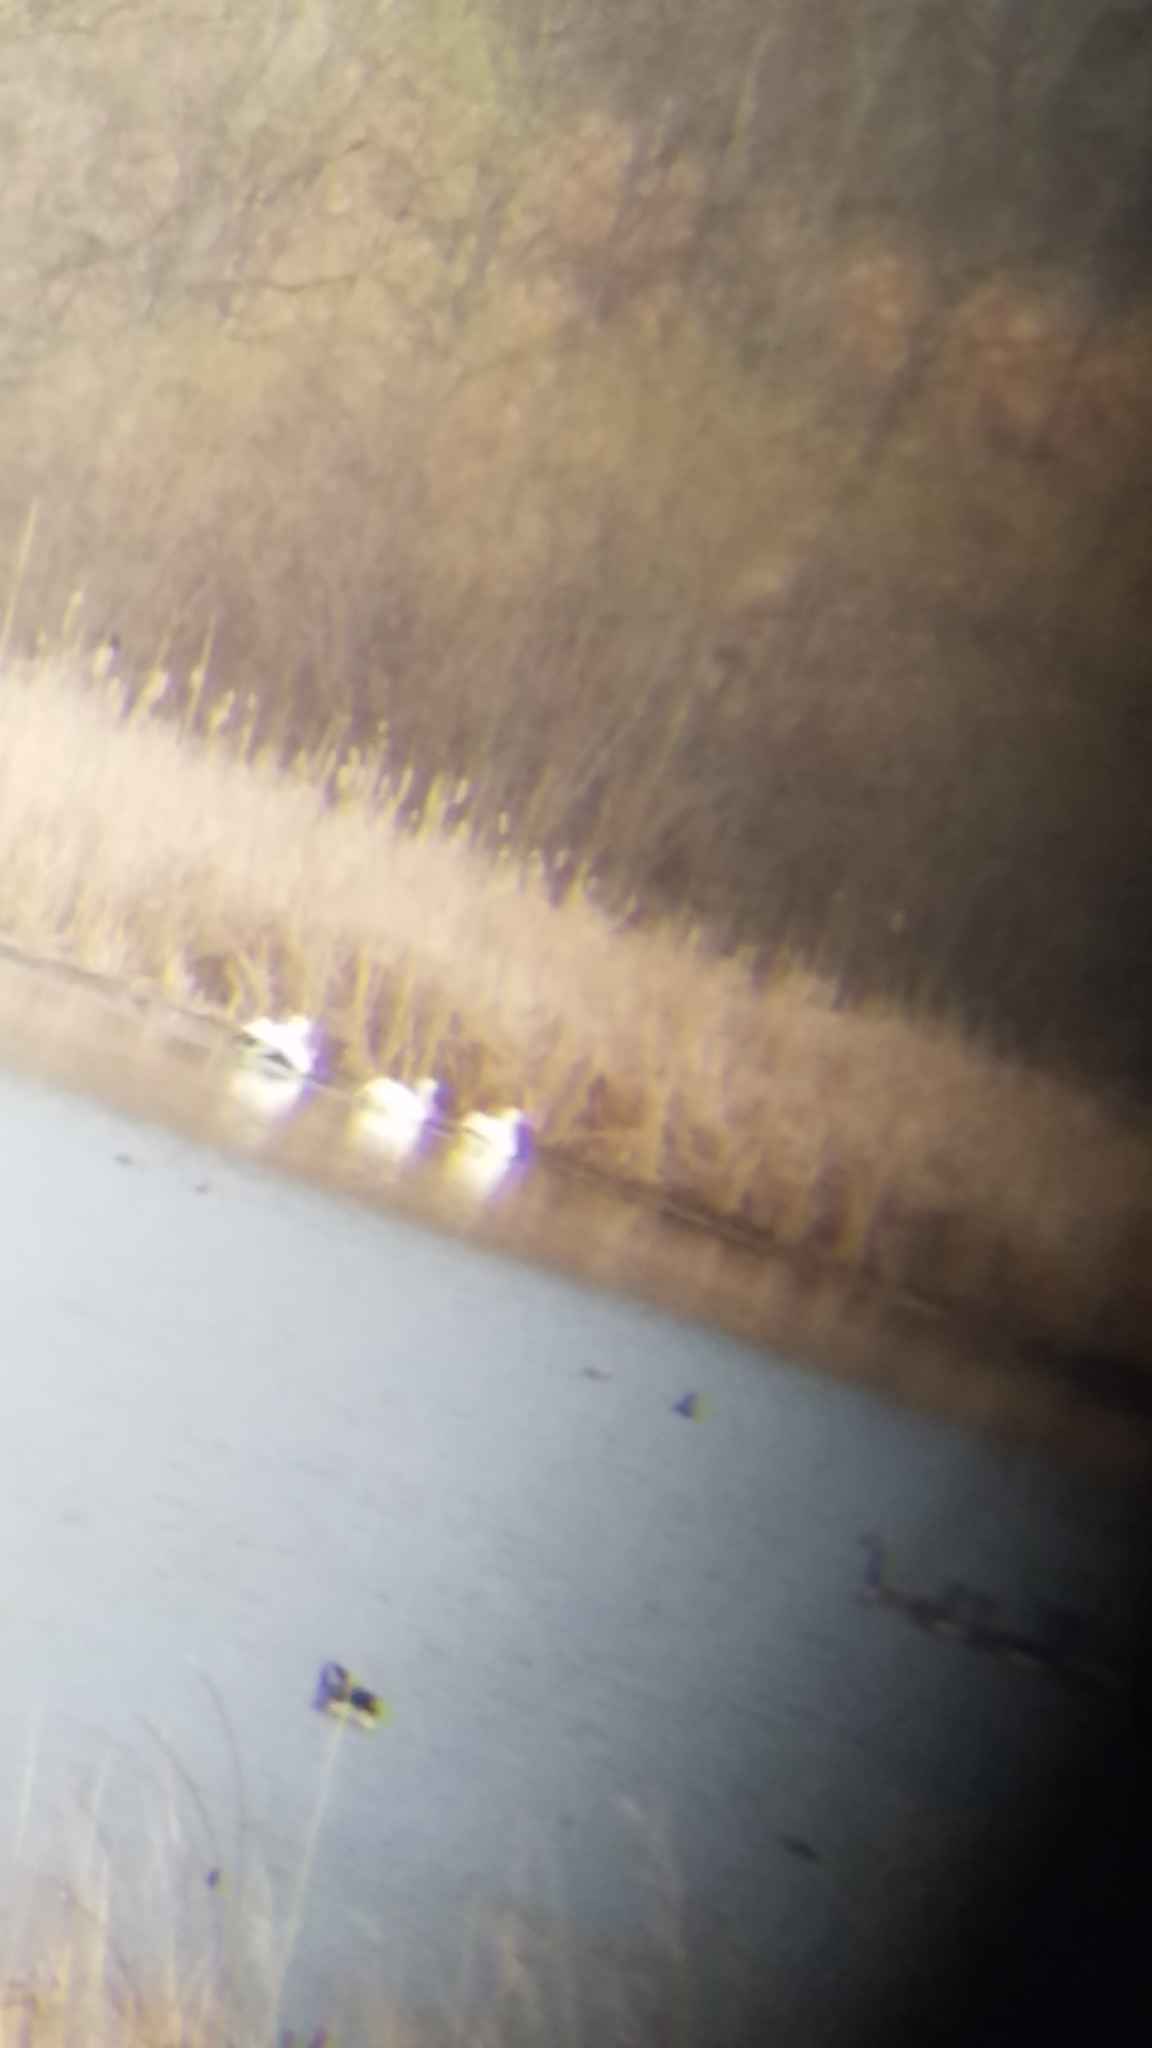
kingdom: Animalia
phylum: Chordata
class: Aves
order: Pelecaniformes
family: Pelecanidae
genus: Pelecanus
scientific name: Pelecanus erythrorhynchos
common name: American white pelican
